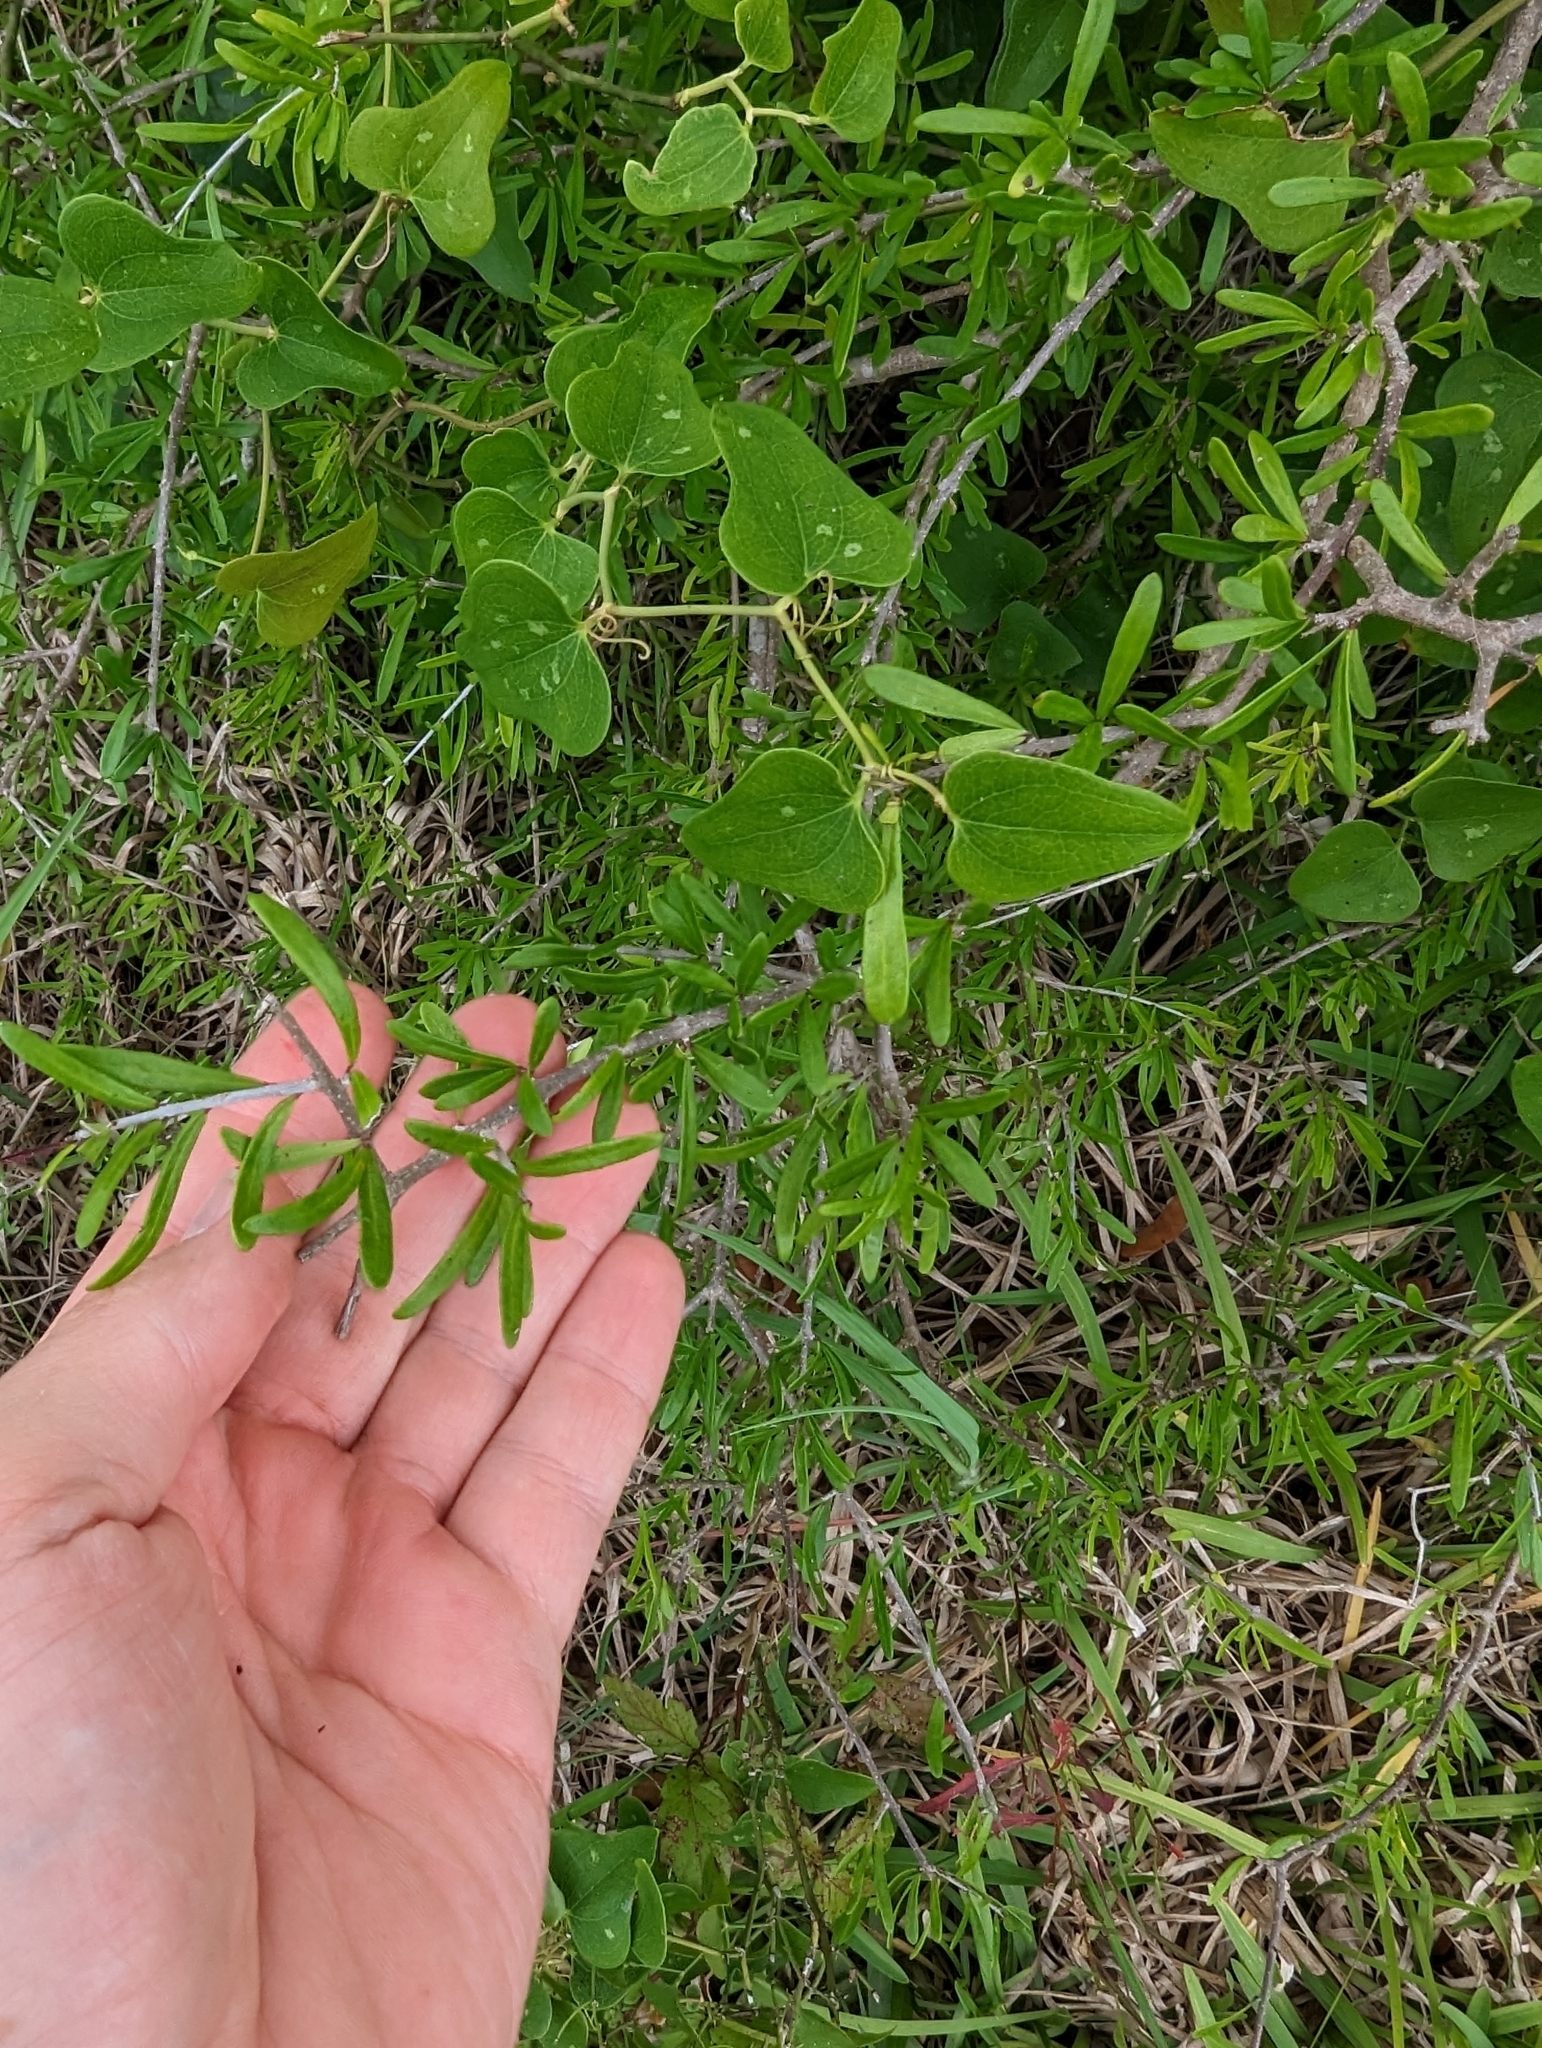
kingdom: Plantae
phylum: Tracheophyta
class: Magnoliopsida
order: Lamiales
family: Oleaceae
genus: Forestiera
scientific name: Forestiera angustifolia
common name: Elbowbush
